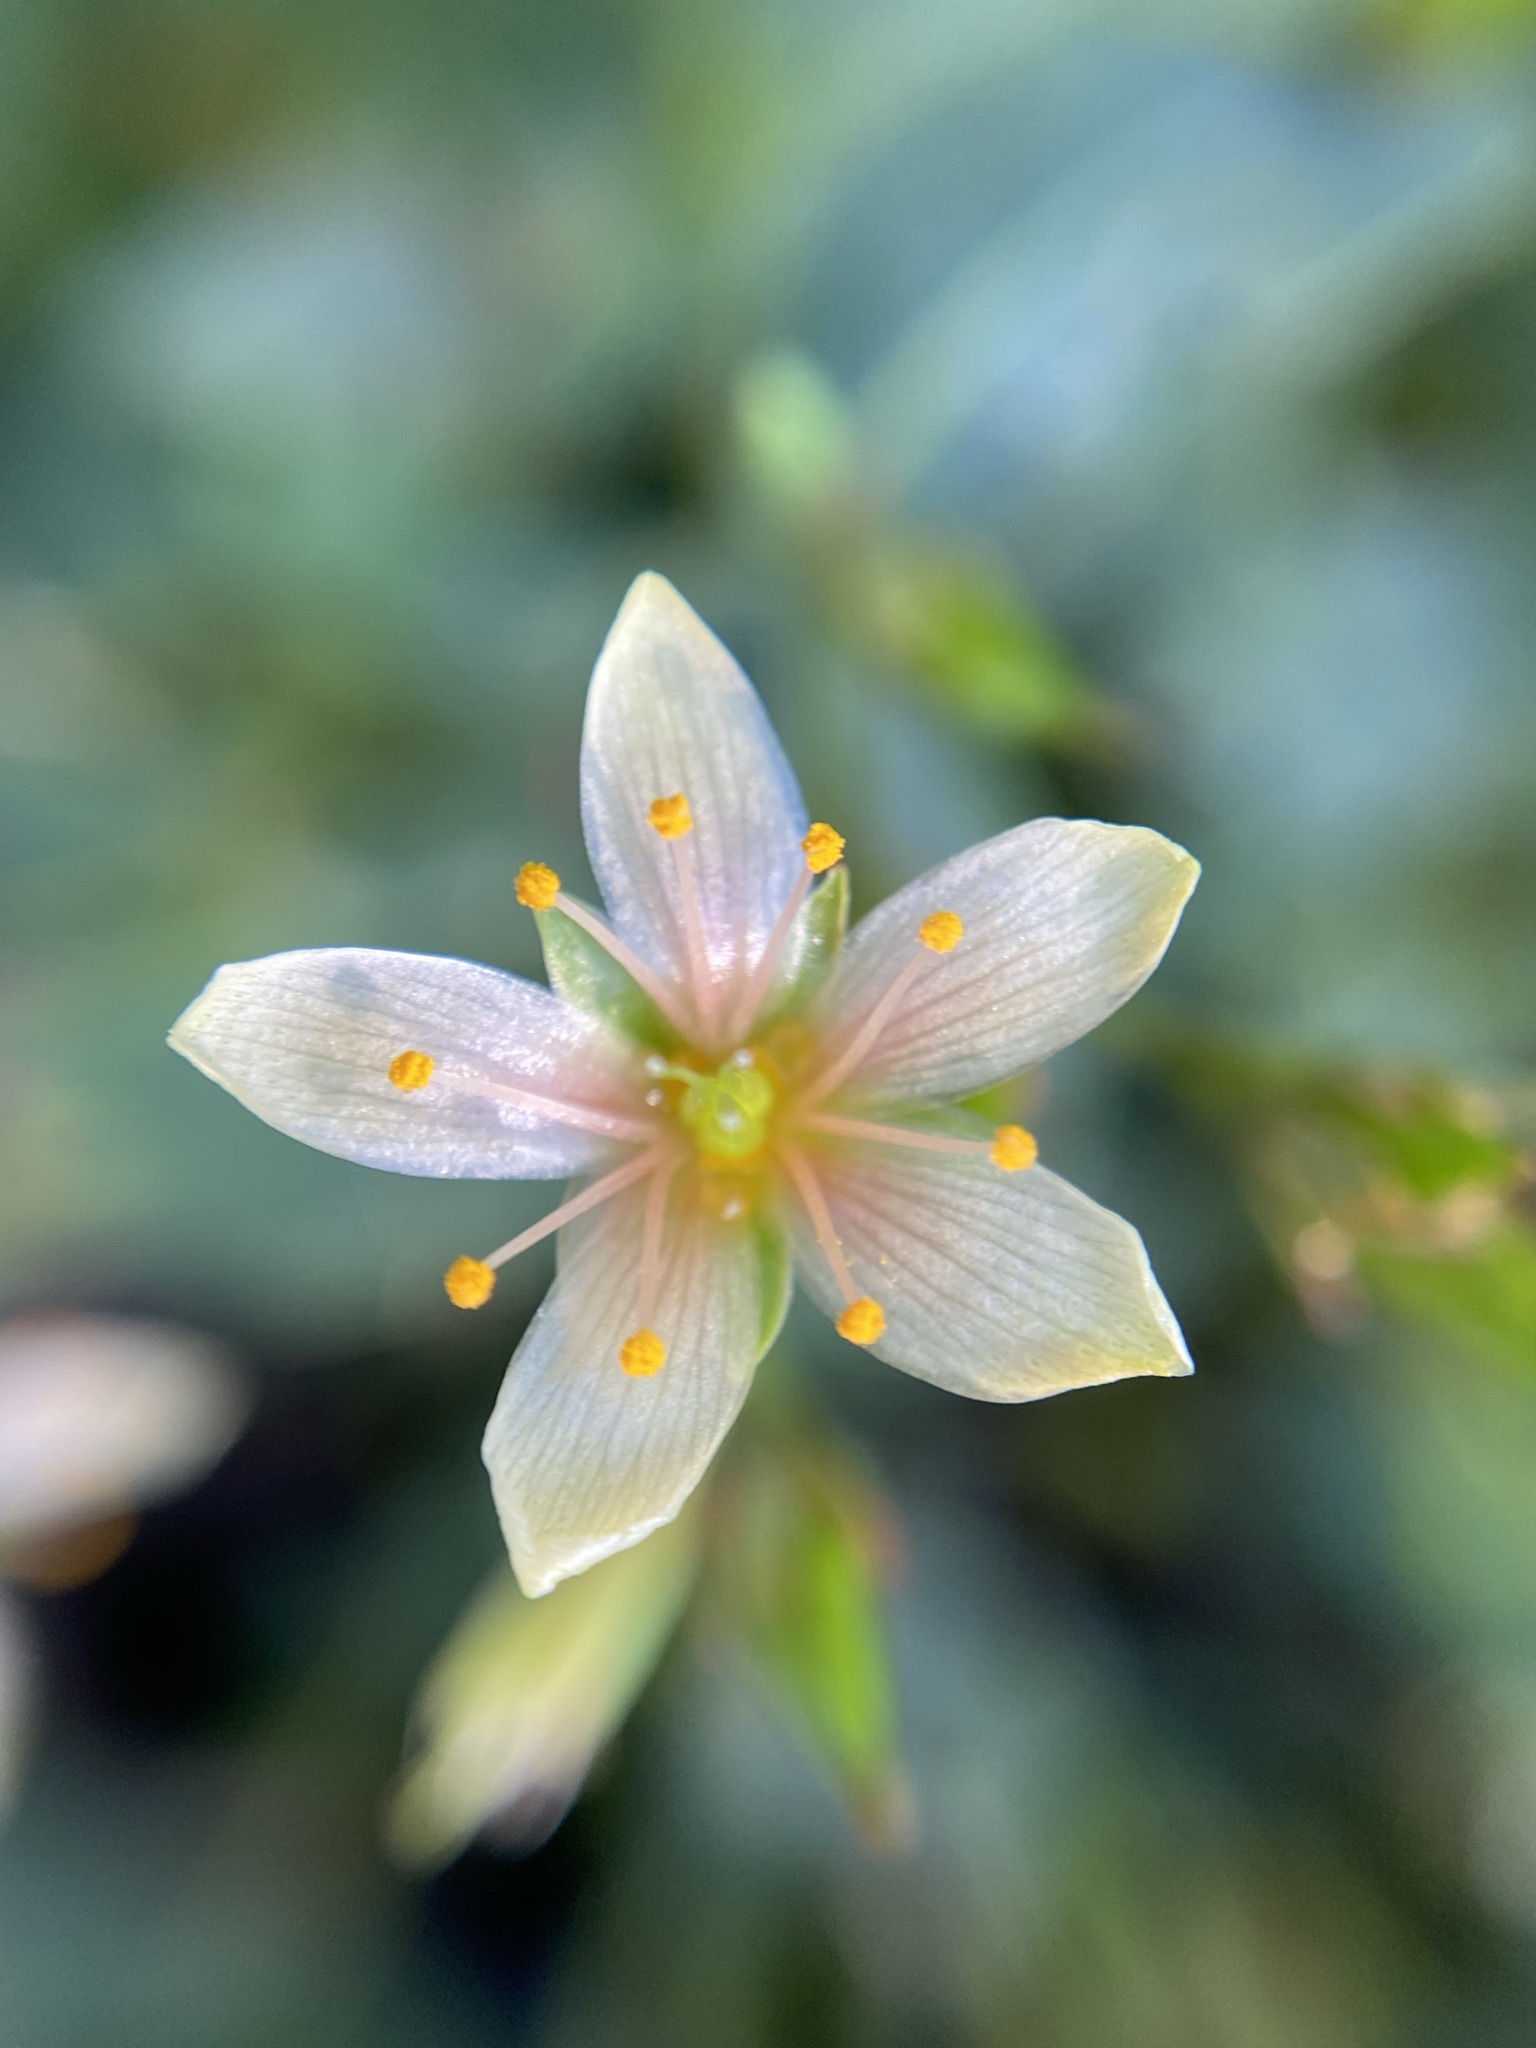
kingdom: Plantae
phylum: Tracheophyta
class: Magnoliopsida
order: Malpighiales
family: Hypericaceae
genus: Triadenum
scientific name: Triadenum virginicum
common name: Marsh st. john's-wort
